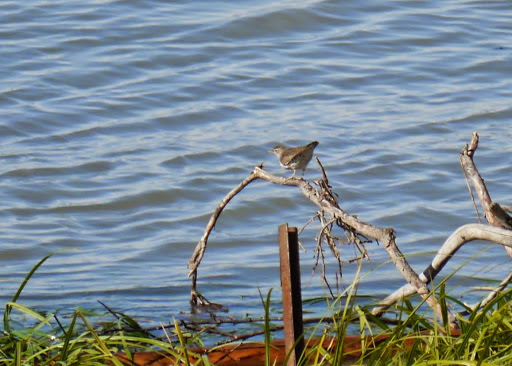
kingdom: Animalia
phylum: Chordata
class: Aves
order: Charadriiformes
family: Scolopacidae
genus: Actitis
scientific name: Actitis macularius
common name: Spotted sandpiper
